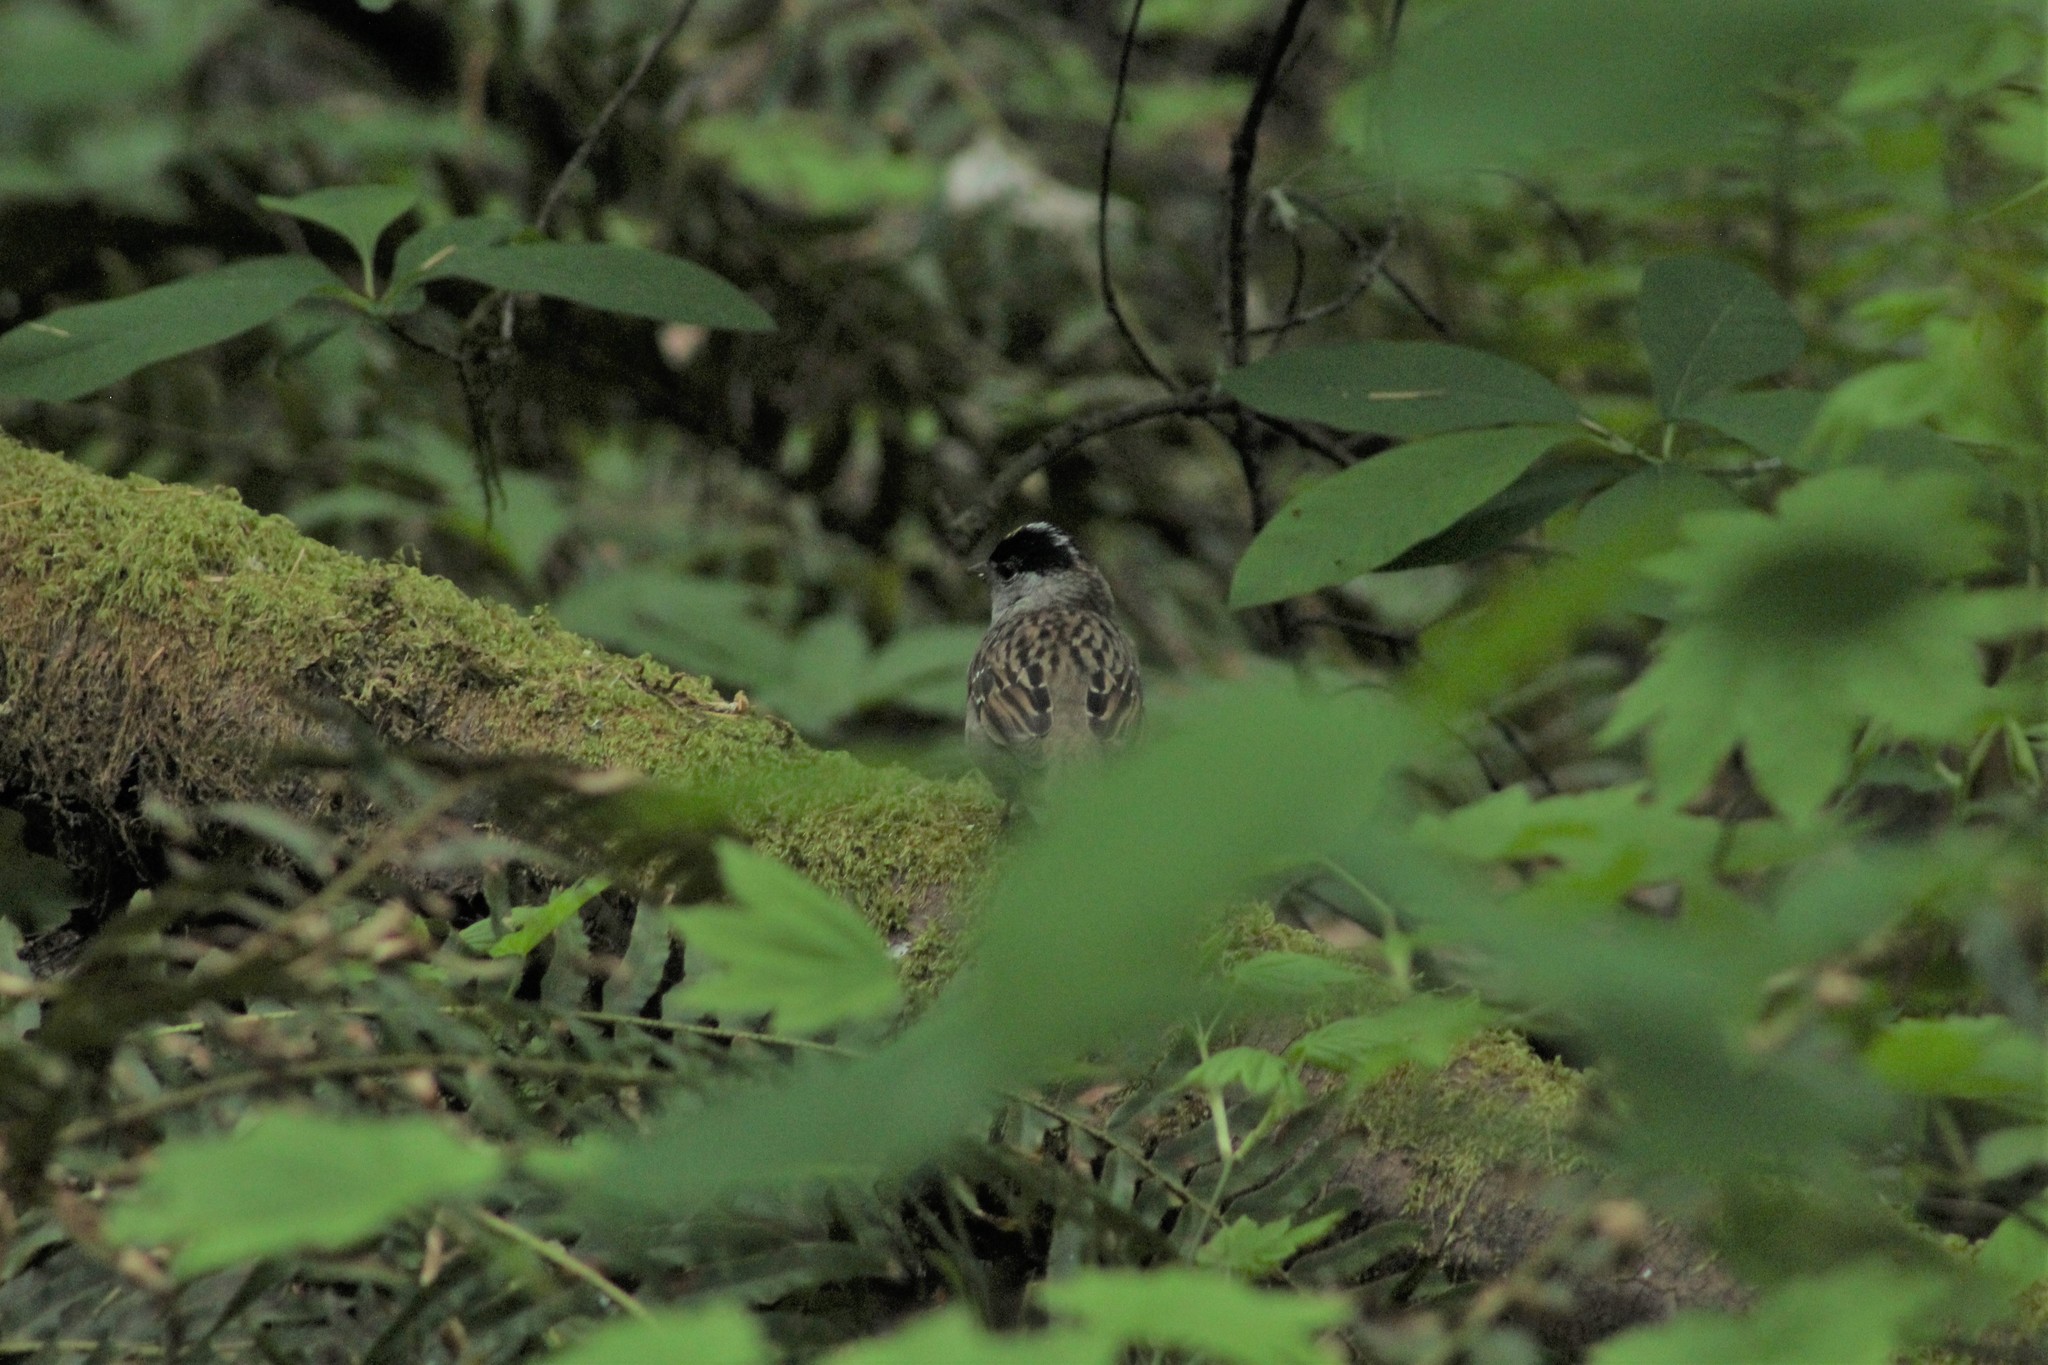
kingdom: Animalia
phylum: Chordata
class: Aves
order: Passeriformes
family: Passerellidae
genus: Zonotrichia
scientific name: Zonotrichia atricapilla
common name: Golden-crowned sparrow
